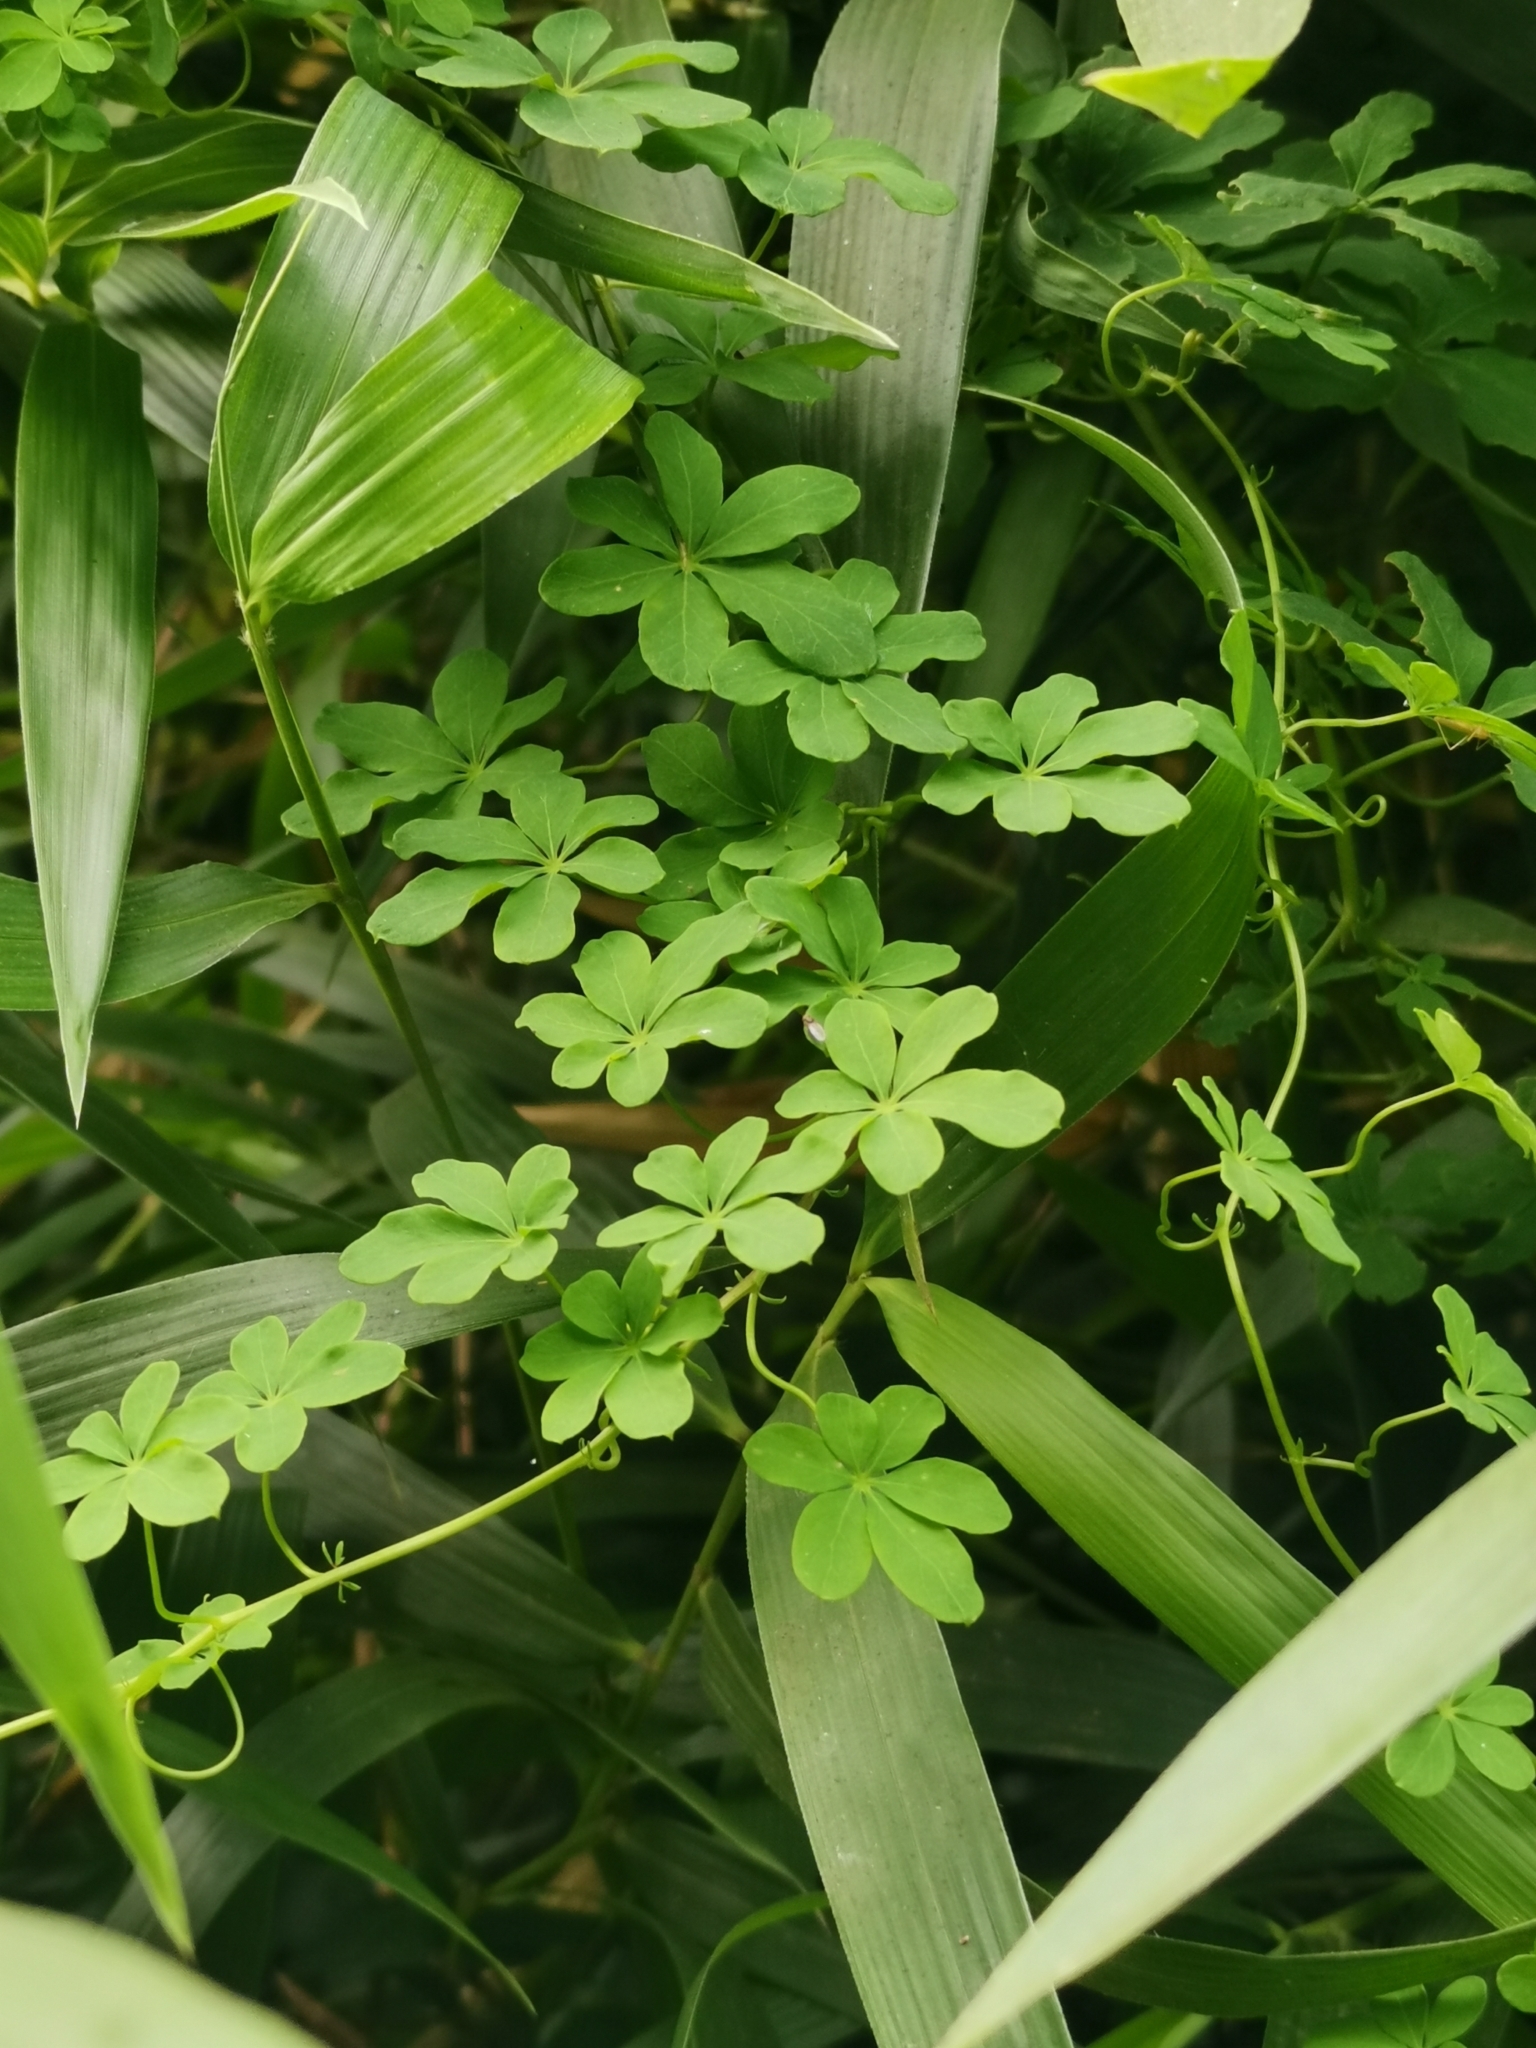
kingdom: Plantae
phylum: Tracheophyta
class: Magnoliopsida
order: Brassicales
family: Tropaeolaceae
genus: Tropaeolum
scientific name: Tropaeolum speciosum
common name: Flame nasturtium
